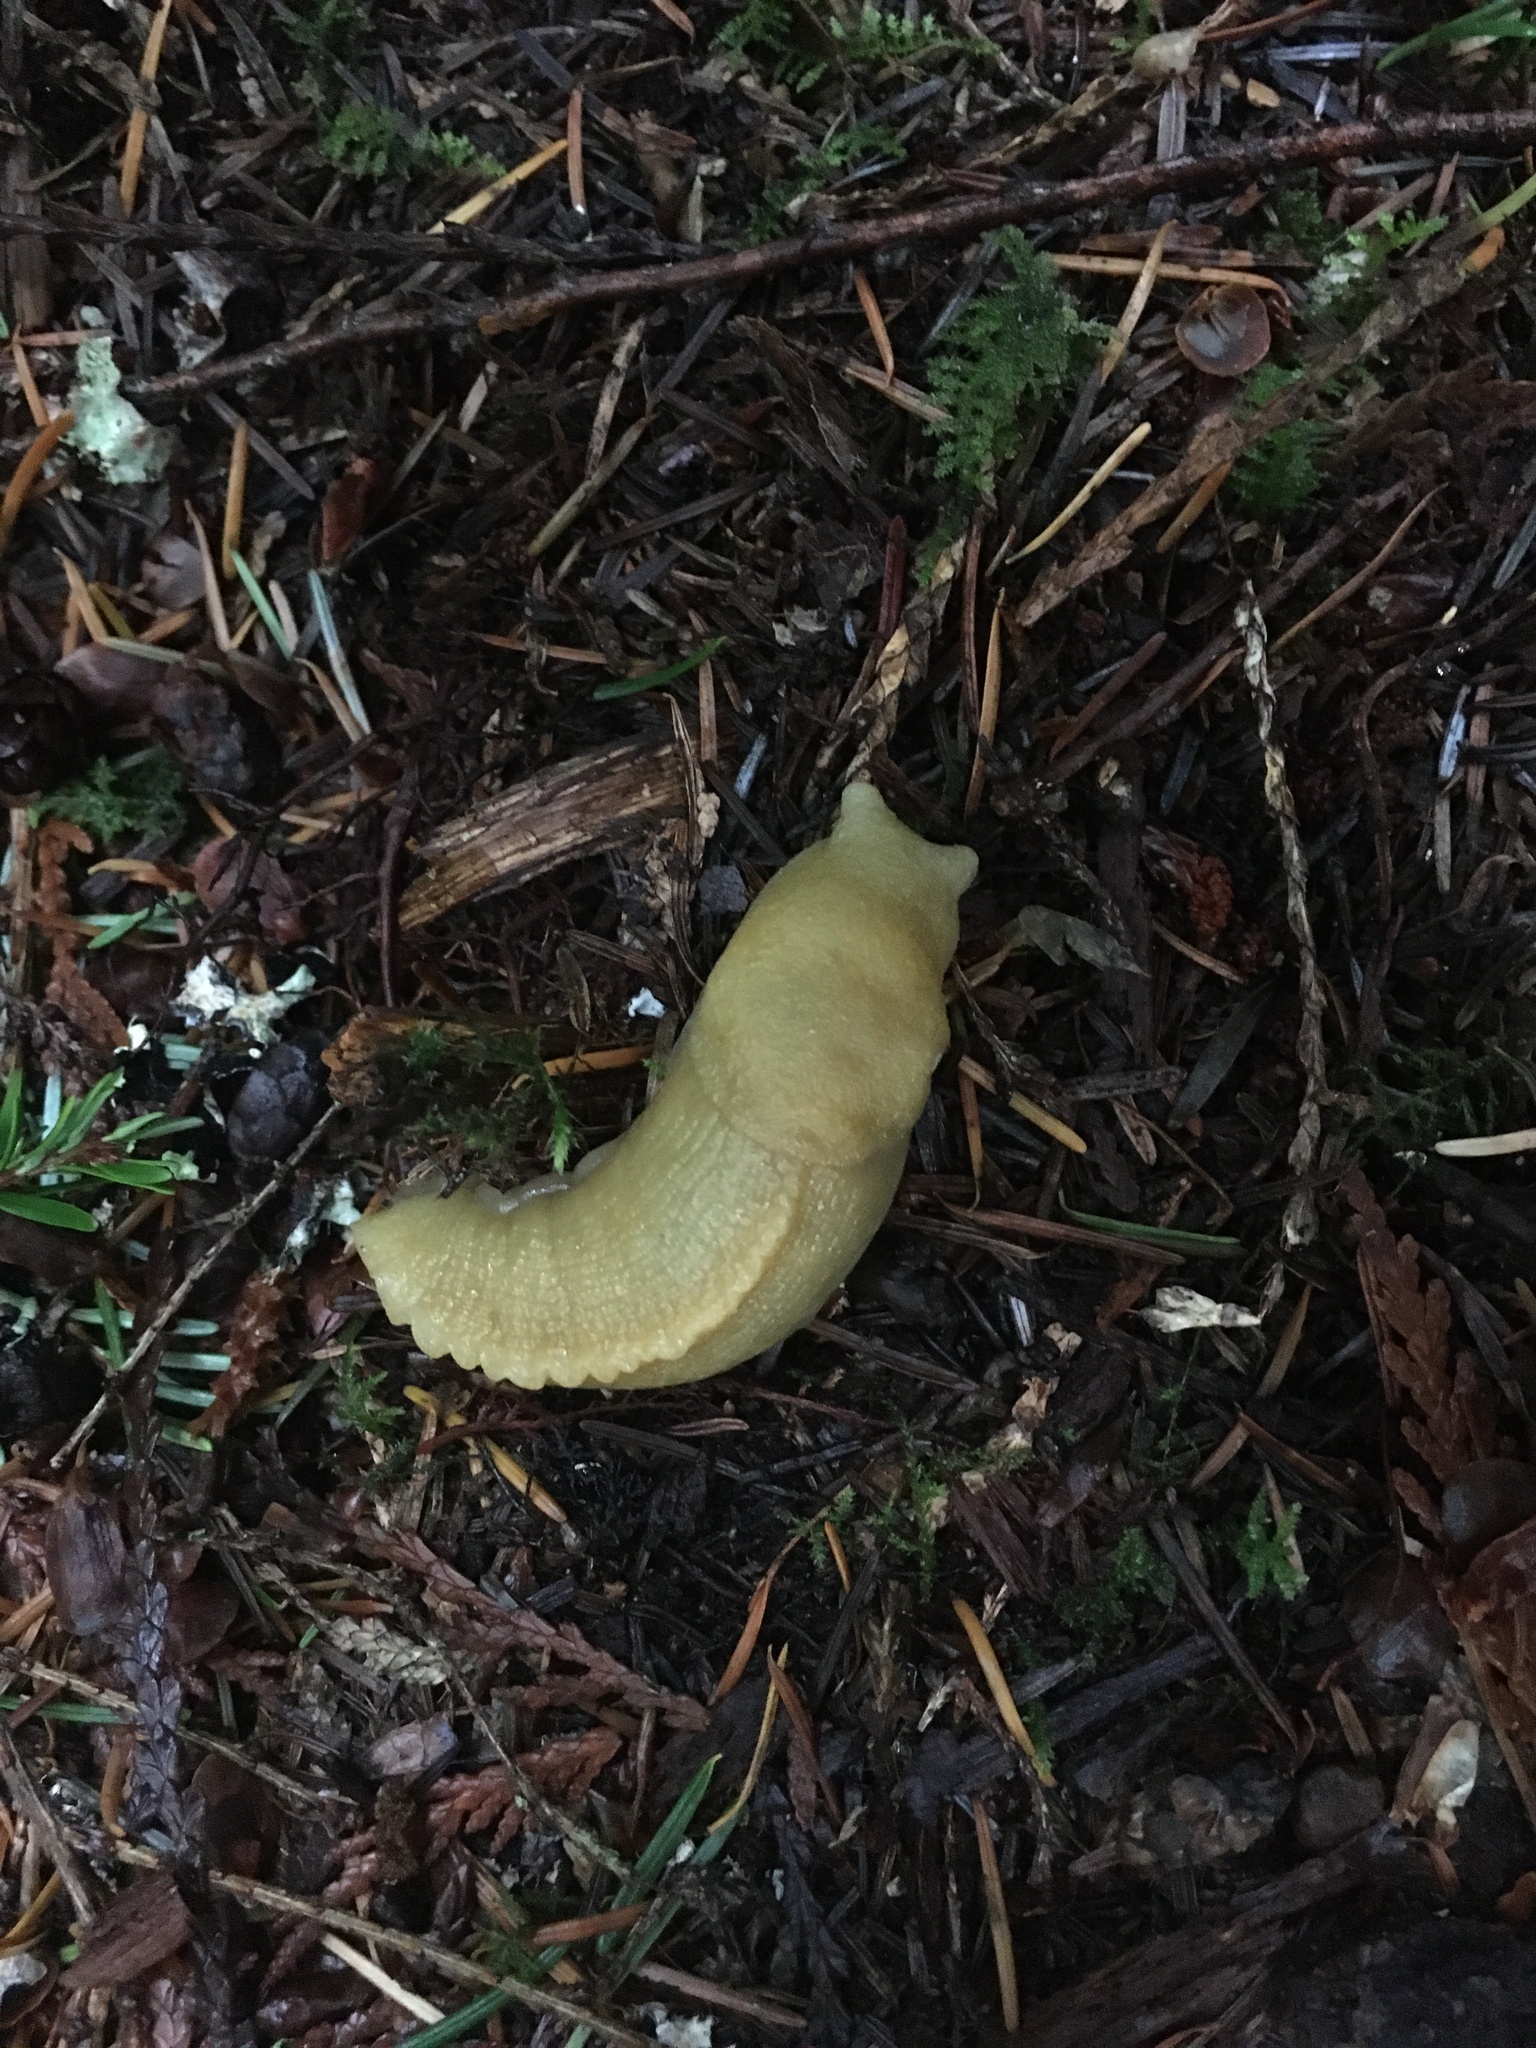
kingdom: Animalia
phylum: Mollusca
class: Gastropoda
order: Stylommatophora
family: Ariolimacidae
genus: Ariolimax
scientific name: Ariolimax columbianus
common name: Pacific banana slug
